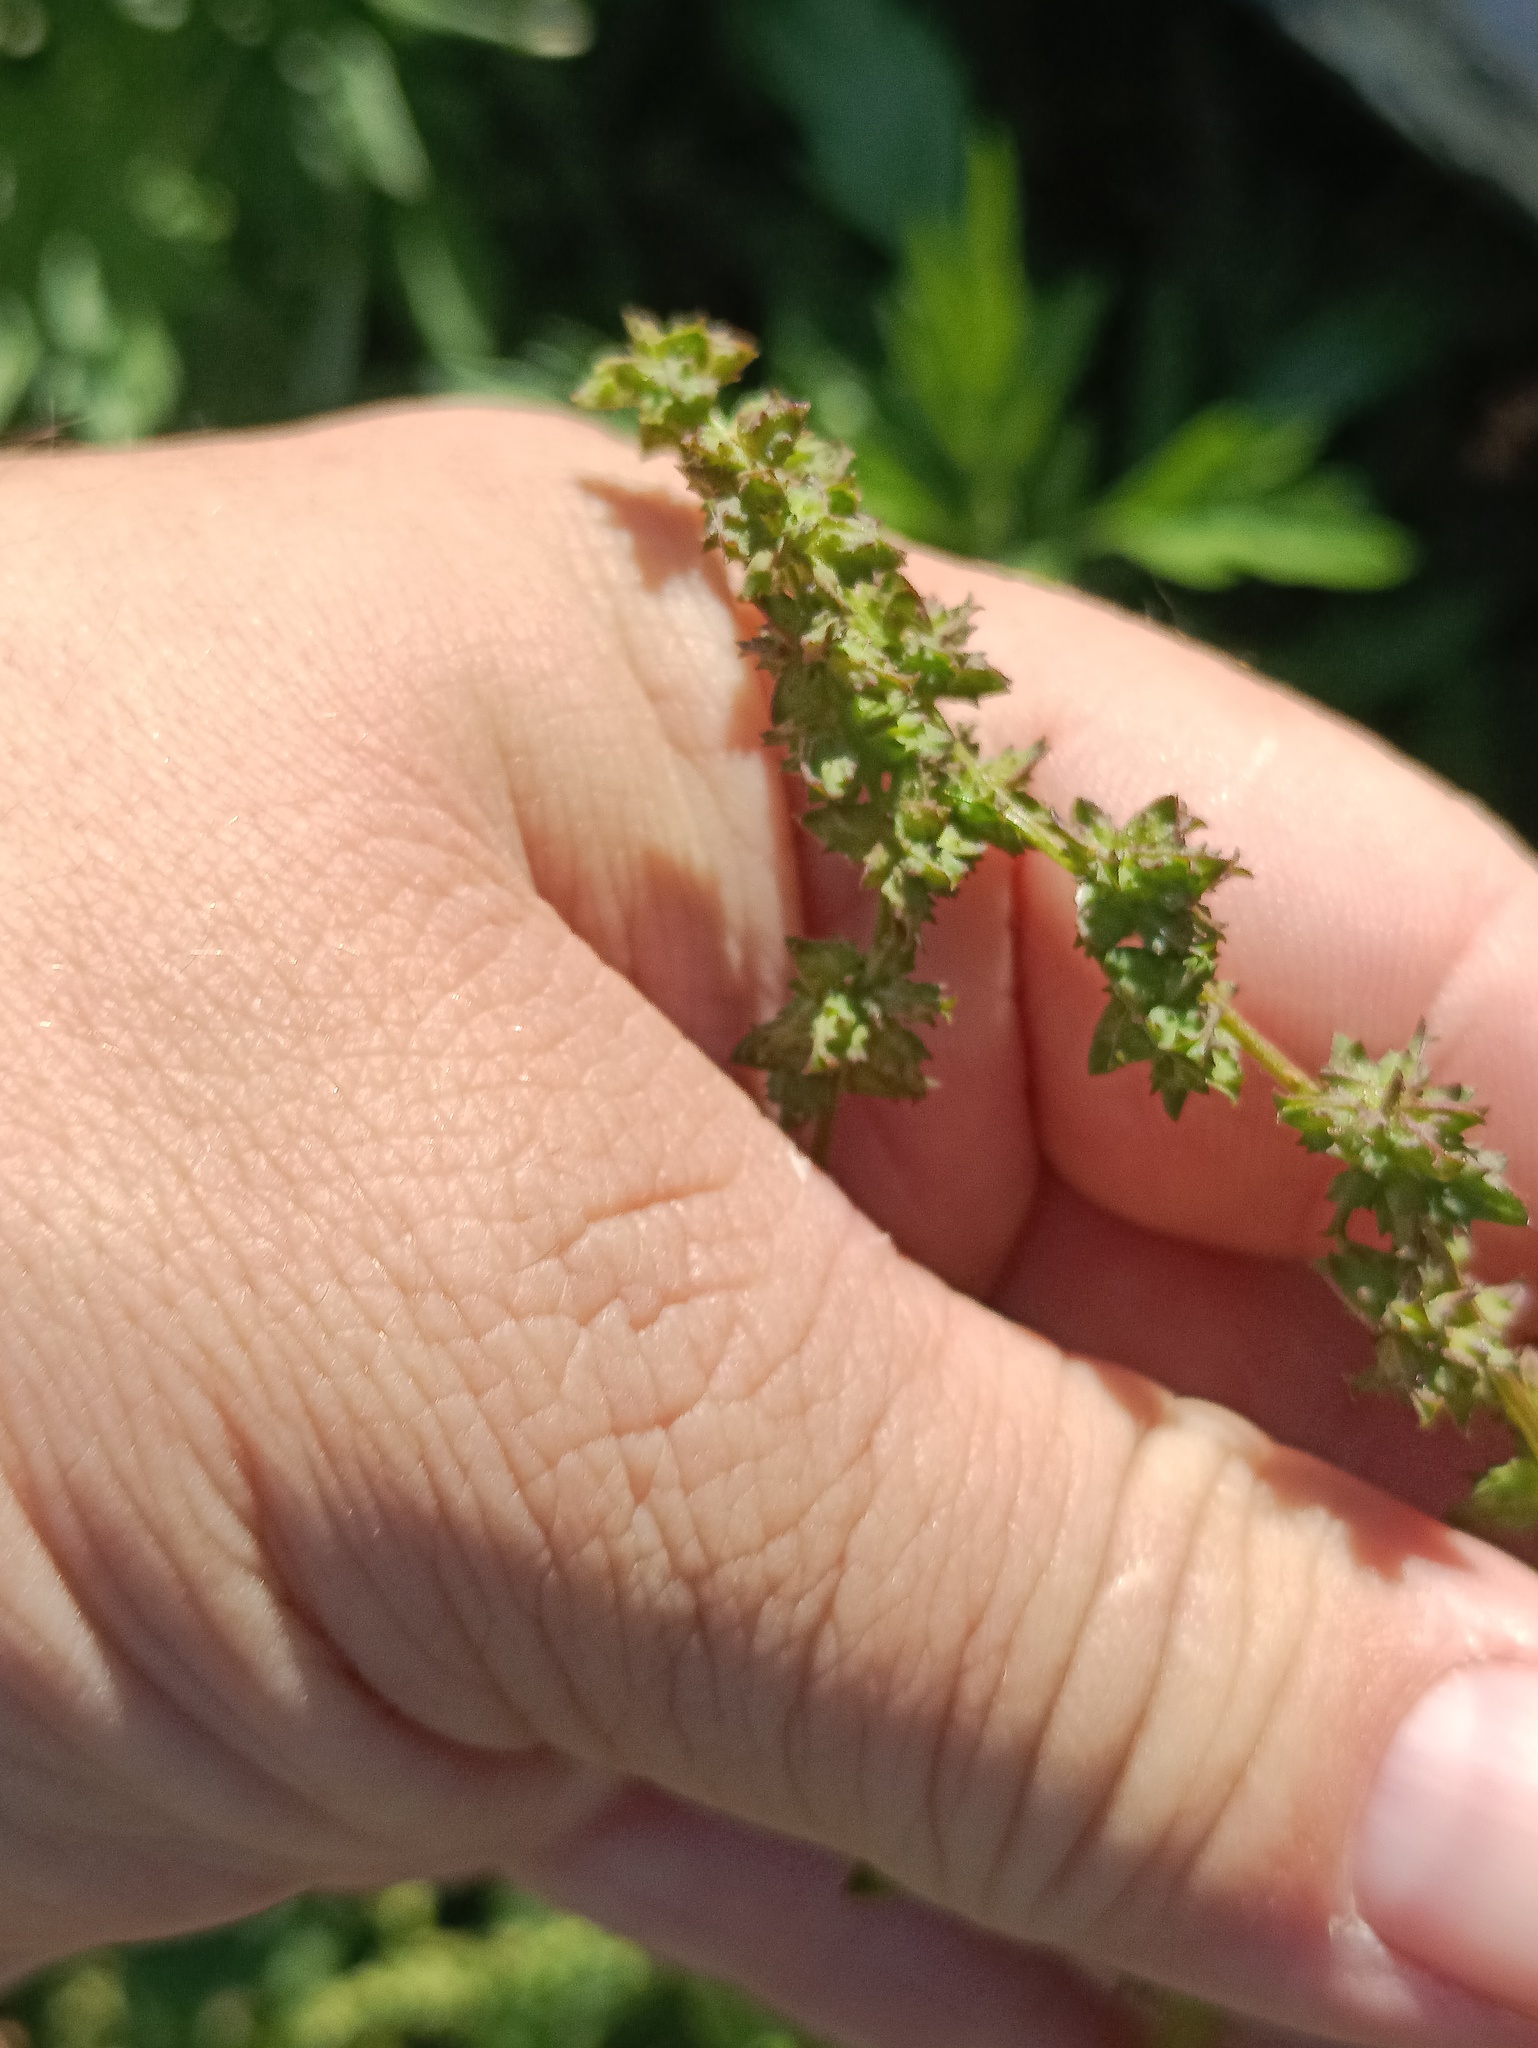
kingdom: Plantae
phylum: Tracheophyta
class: Magnoliopsida
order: Caryophyllales
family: Amaranthaceae
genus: Atriplex
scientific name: Atriplex prostrata
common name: Spear-leaved orache
